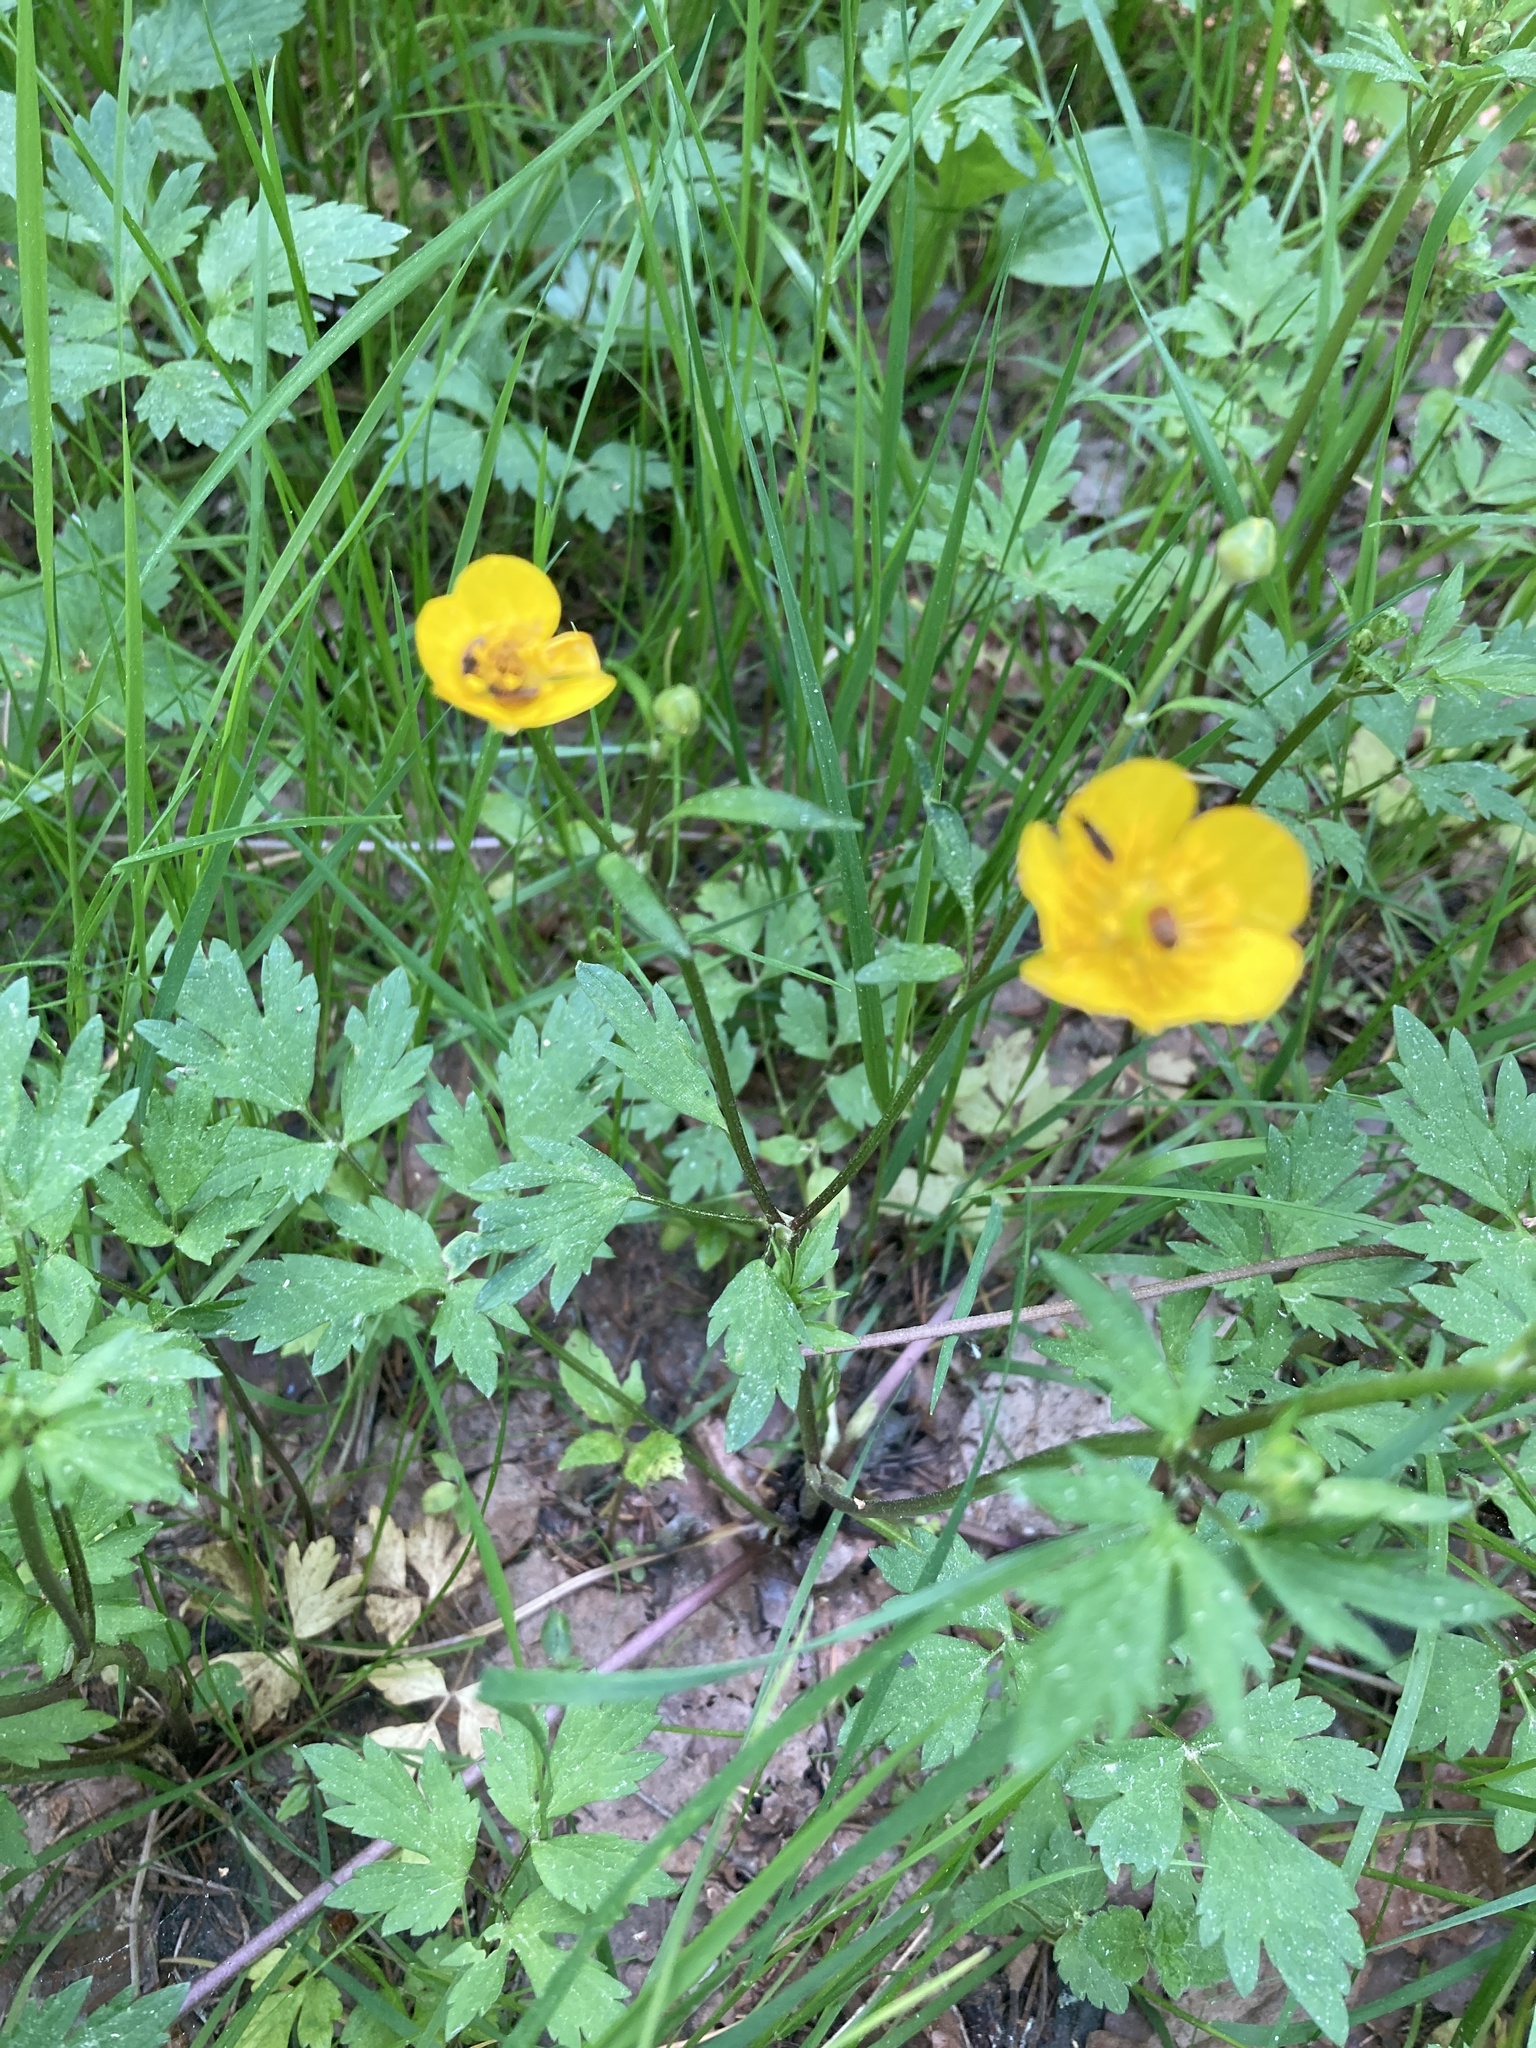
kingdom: Plantae
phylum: Tracheophyta
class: Magnoliopsida
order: Ranunculales
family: Ranunculaceae
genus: Ranunculus
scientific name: Ranunculus repens
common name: Creeping buttercup
